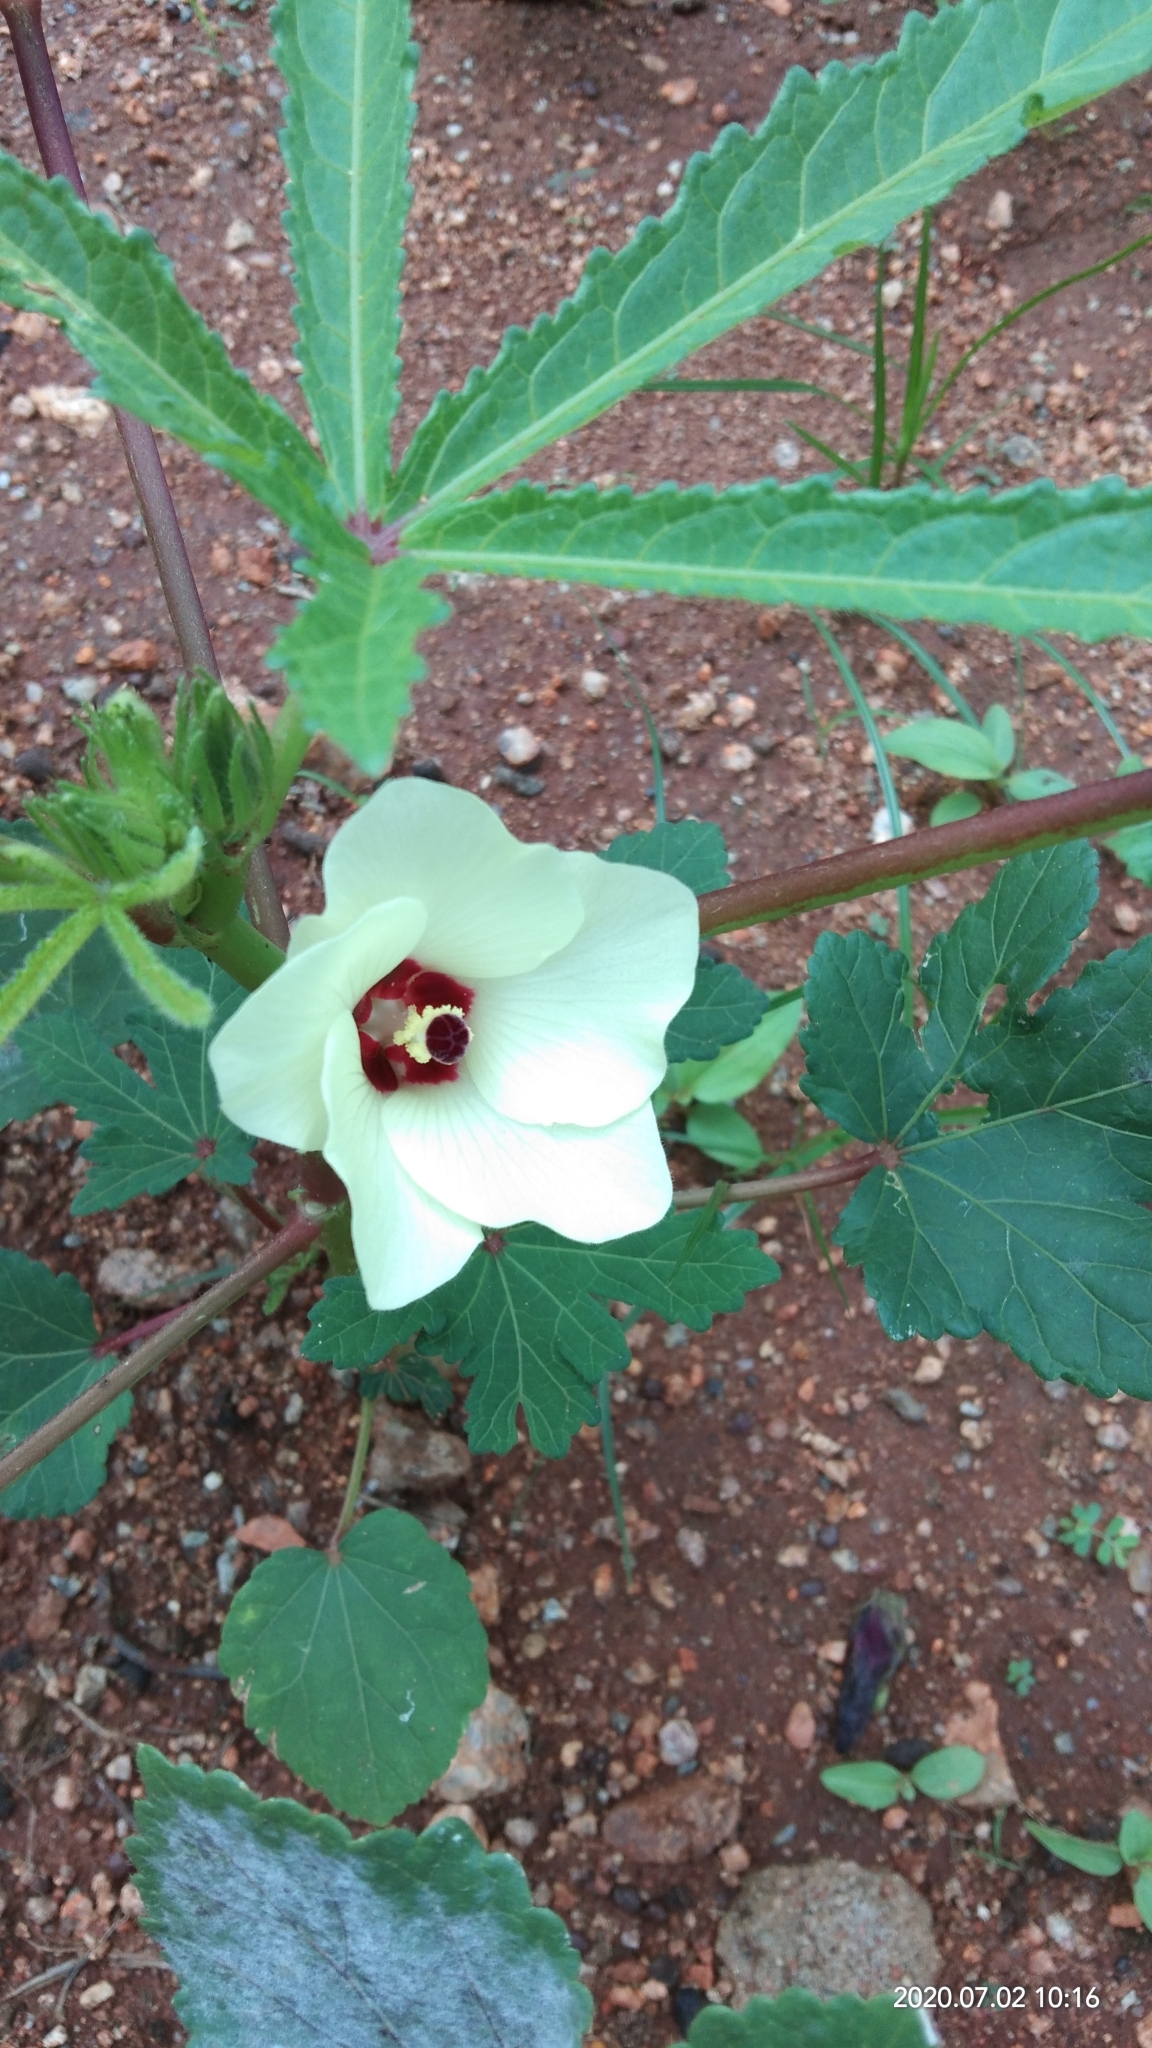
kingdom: Plantae
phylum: Tracheophyta
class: Magnoliopsida
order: Malvales
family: Malvaceae
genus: Hibiscus
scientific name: Hibiscus trionum
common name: Bladder ketmia
